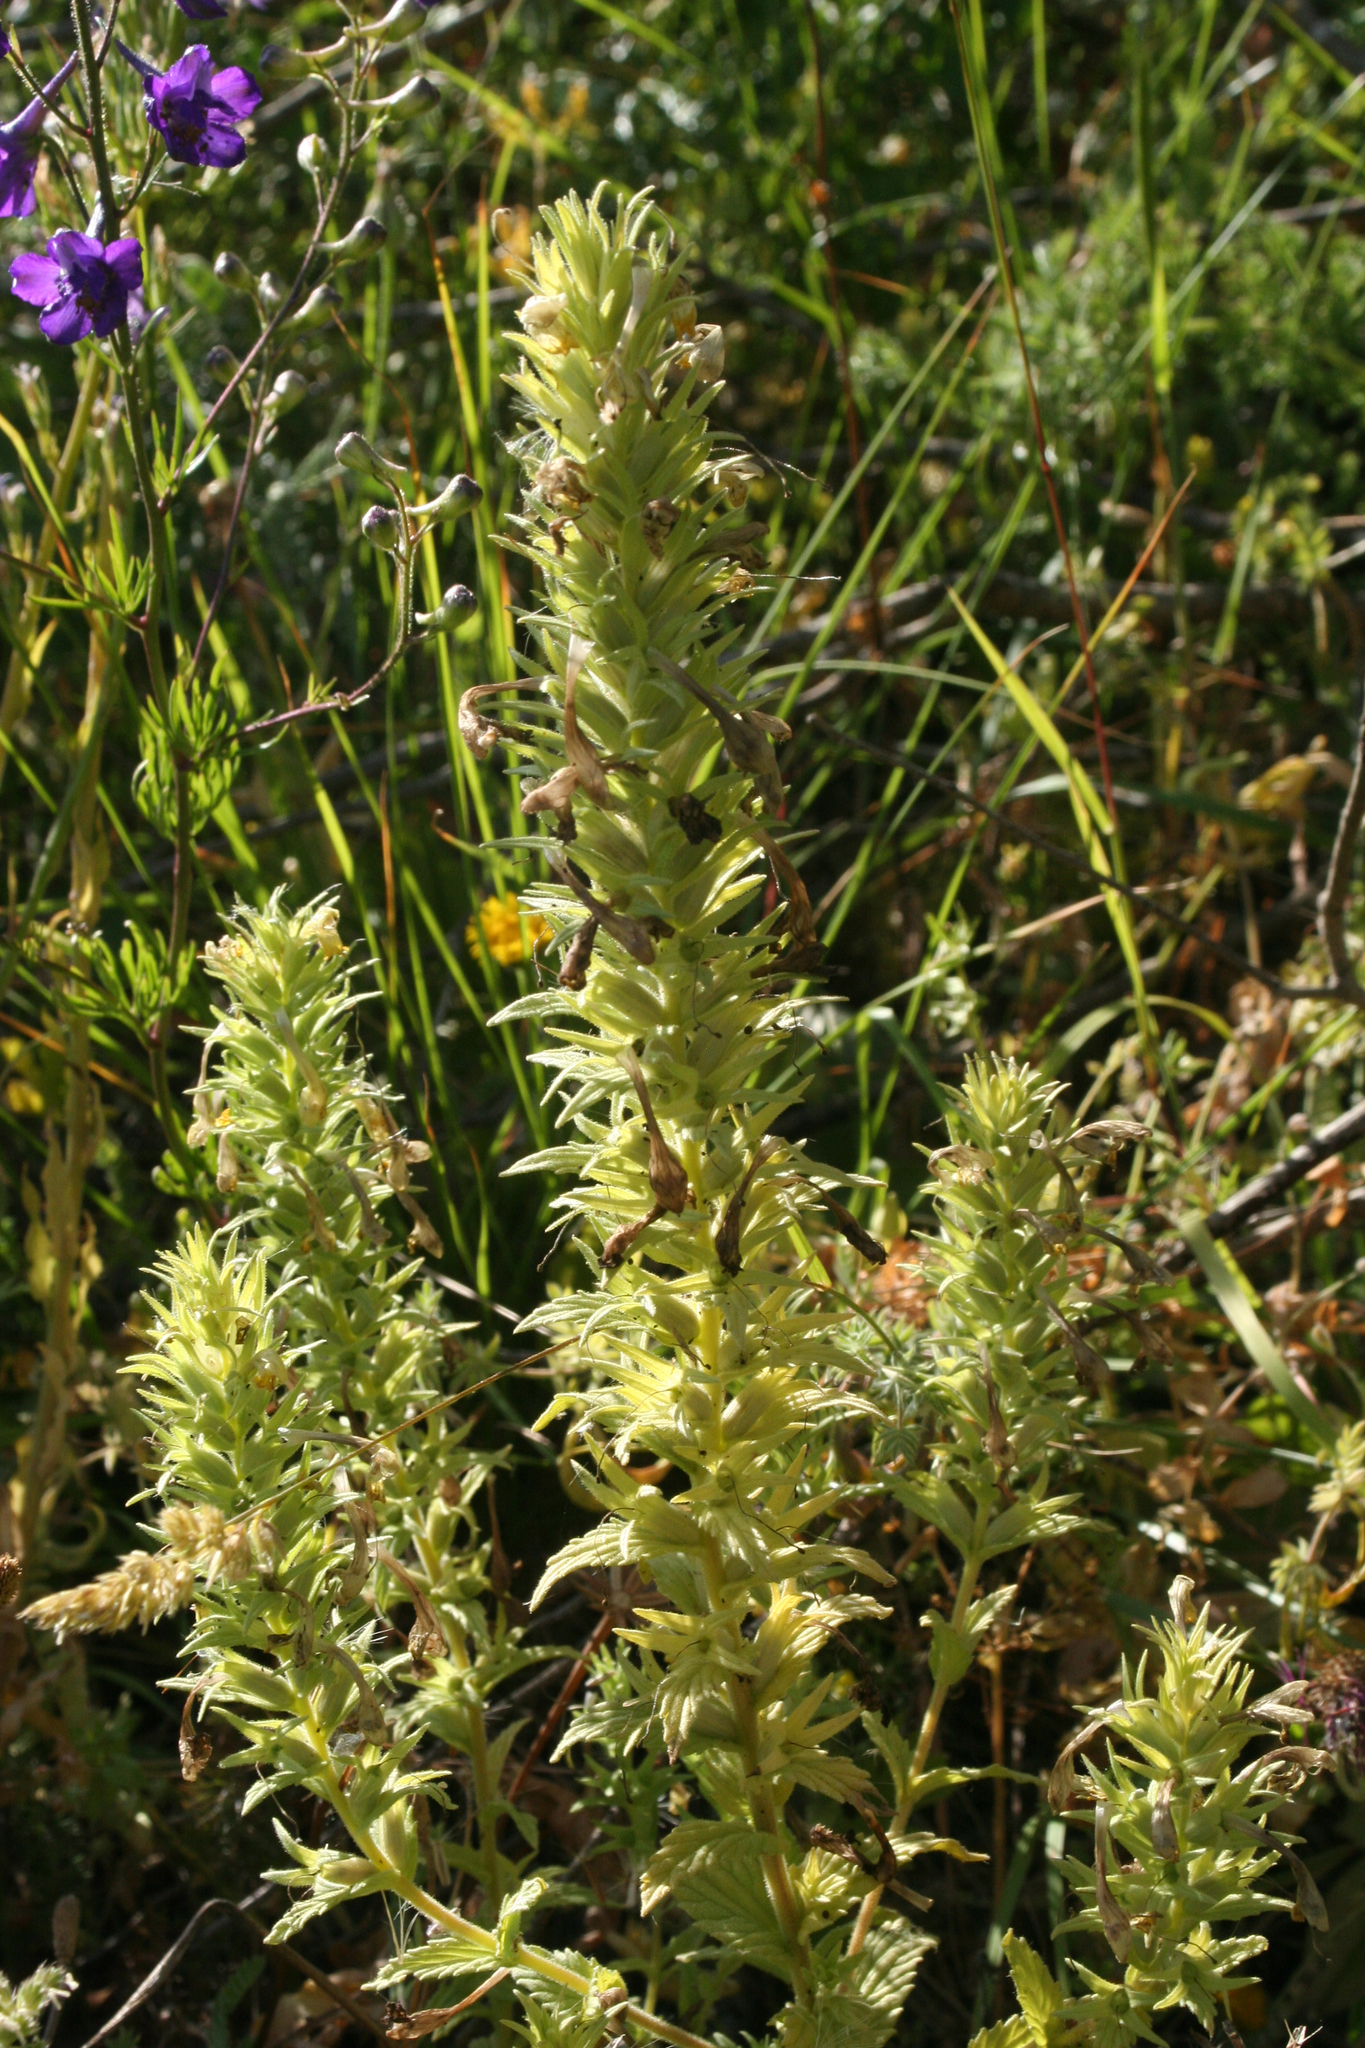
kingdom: Plantae
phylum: Tracheophyta
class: Magnoliopsida
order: Lamiales
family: Orobanchaceae
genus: Bellardia
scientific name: Bellardia viscosa
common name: Sticky parentucellia
